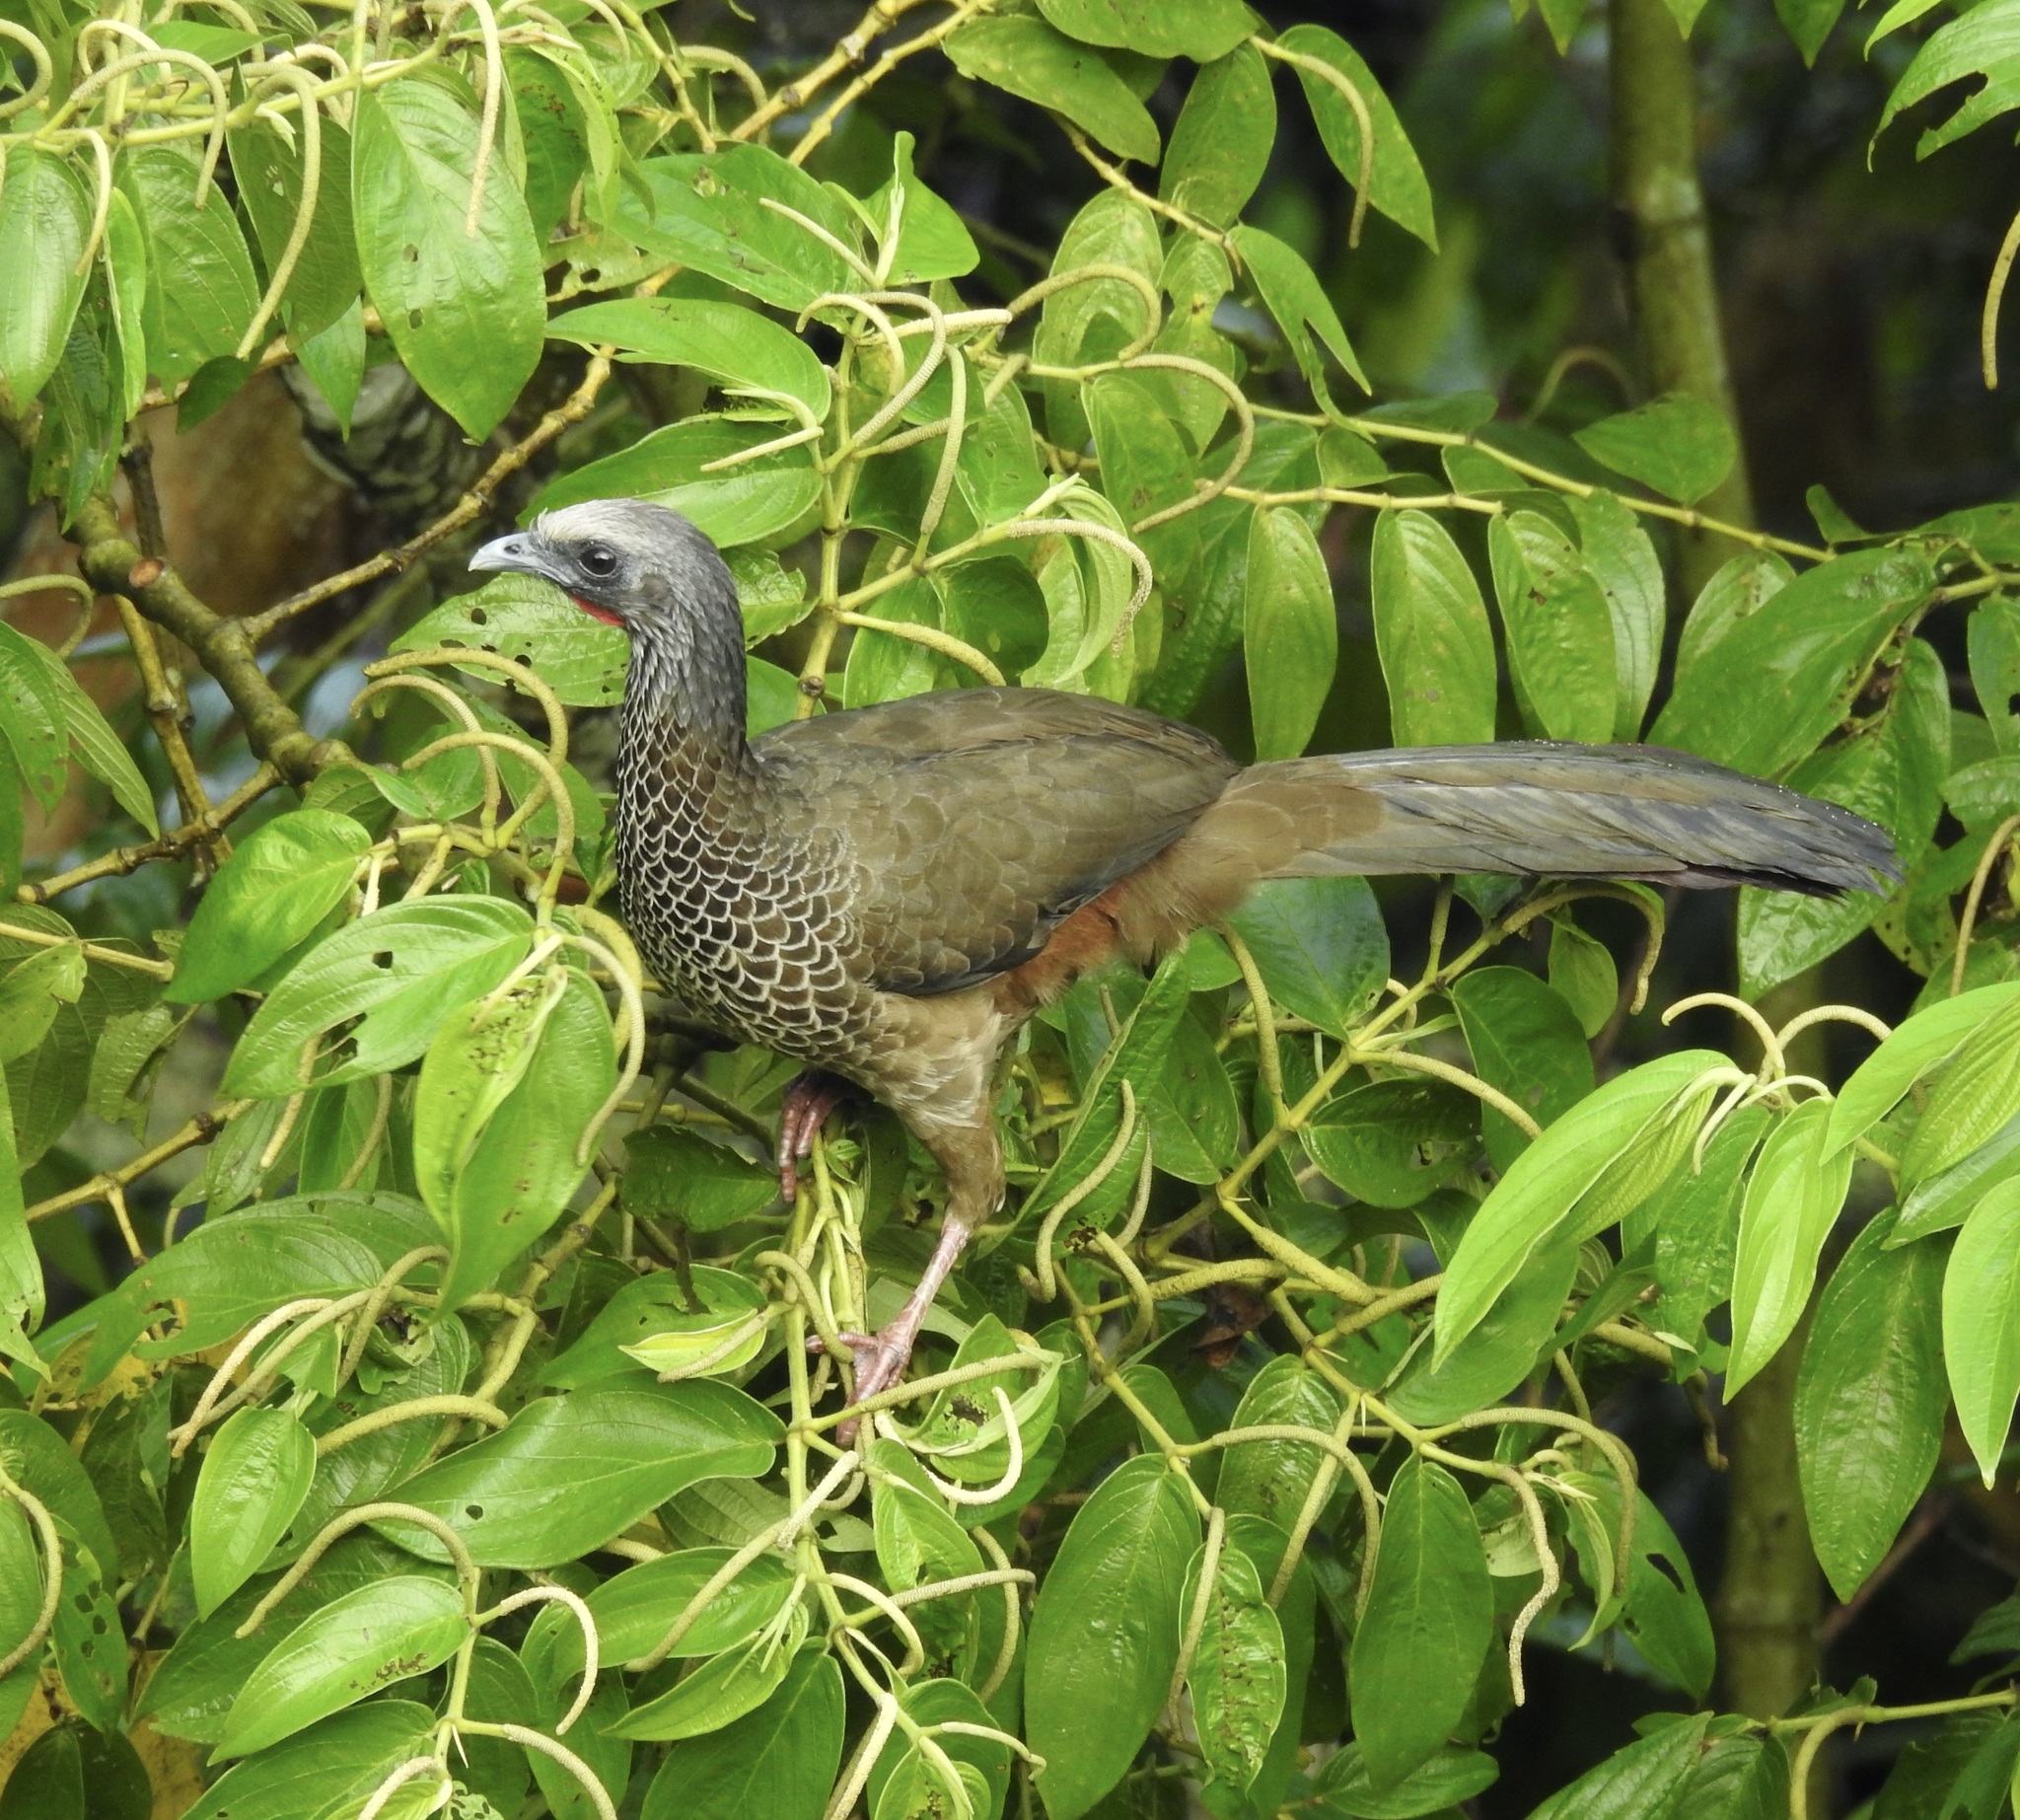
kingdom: Animalia
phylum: Chordata
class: Aves
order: Galliformes
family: Cracidae
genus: Ortalis
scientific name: Ortalis columbiana
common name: Colombian chachalaca
